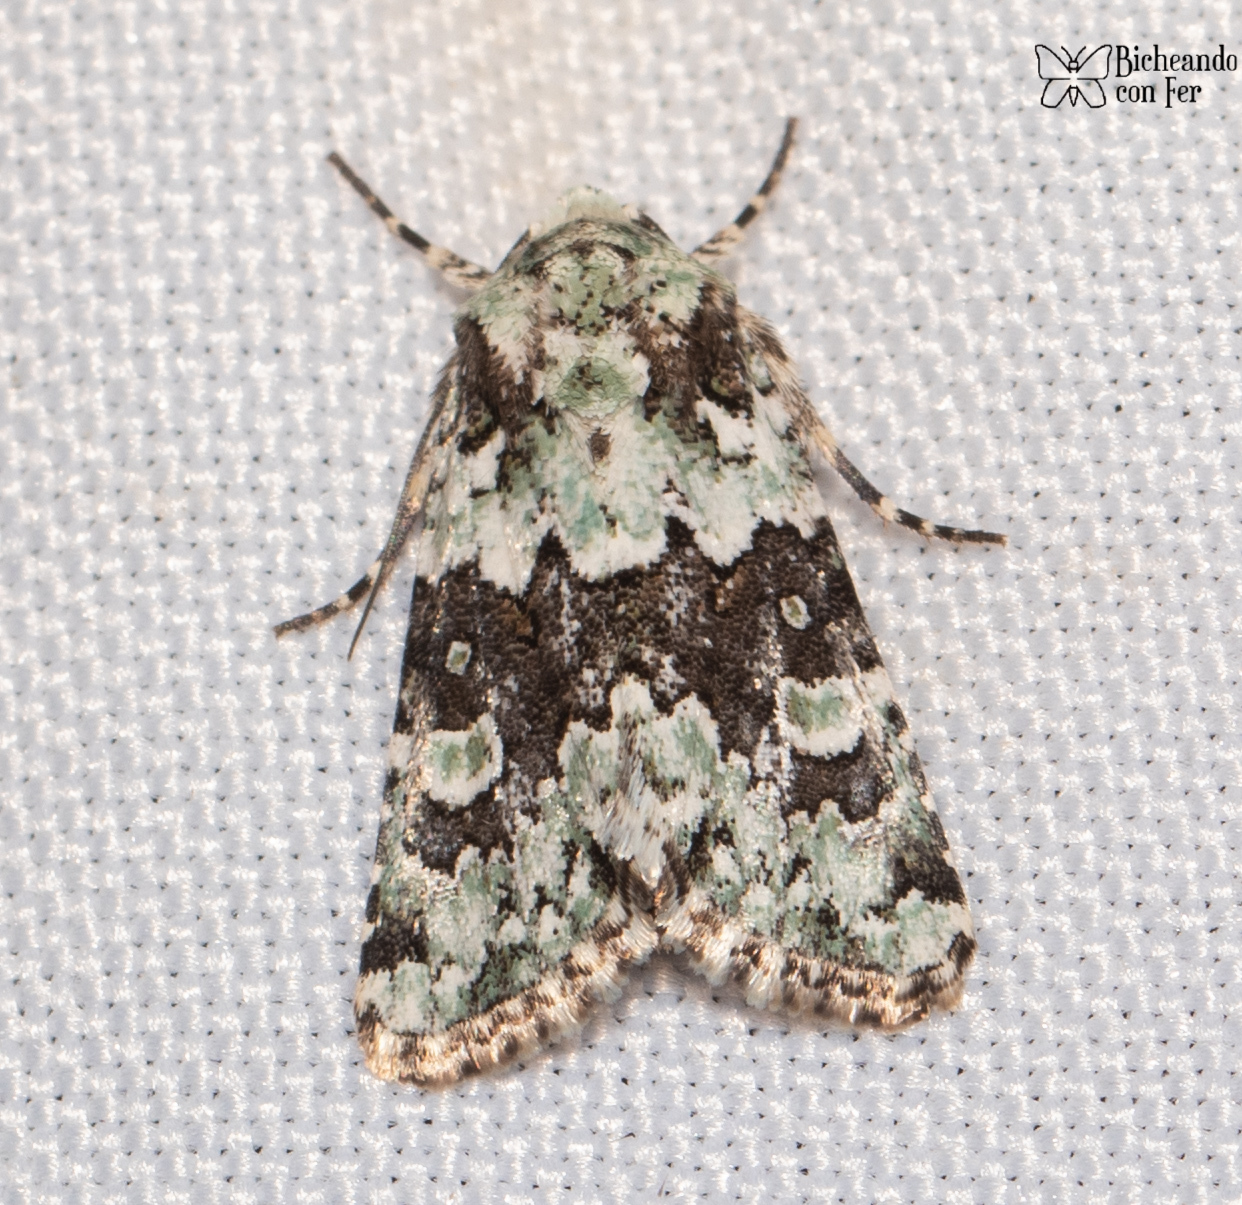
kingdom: Animalia
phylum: Arthropoda
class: Insecta
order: Lepidoptera
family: Noctuidae
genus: Lacinipolia
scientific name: Lacinipolia buscki
